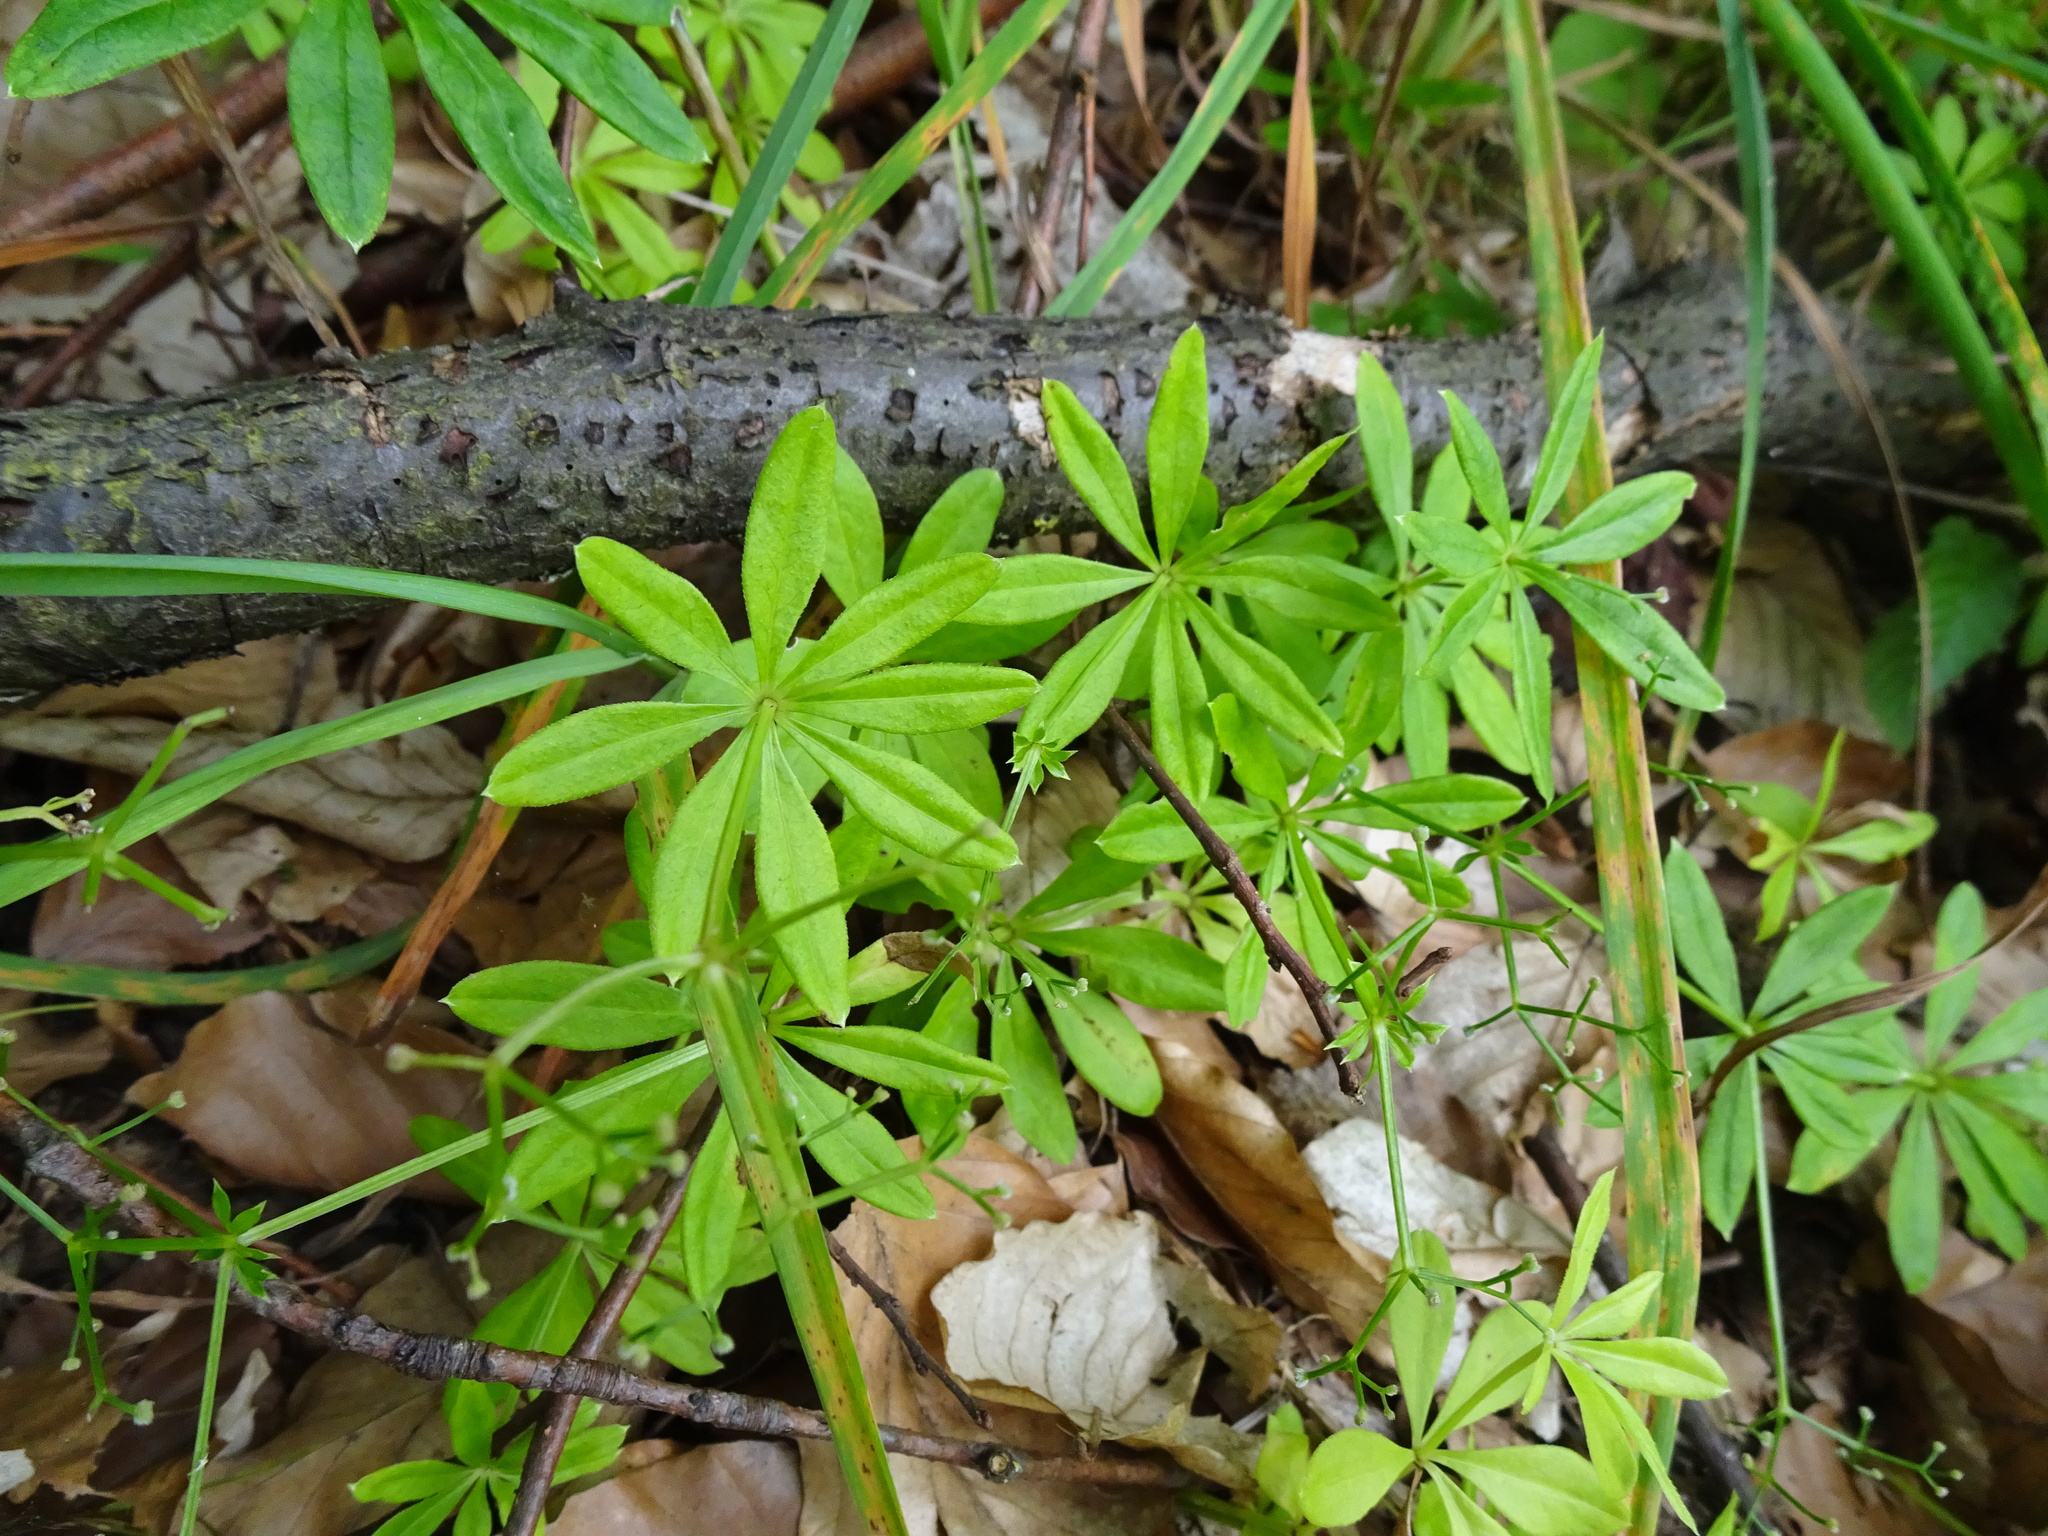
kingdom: Plantae
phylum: Tracheophyta
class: Magnoliopsida
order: Gentianales
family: Rubiaceae
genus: Galium
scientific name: Galium odoratum
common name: Sweet woodruff
